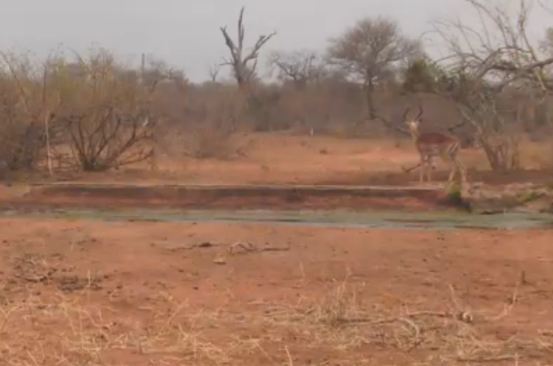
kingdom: Animalia
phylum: Chordata
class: Mammalia
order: Artiodactyla
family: Bovidae
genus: Aepyceros
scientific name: Aepyceros melampus
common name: Impala
